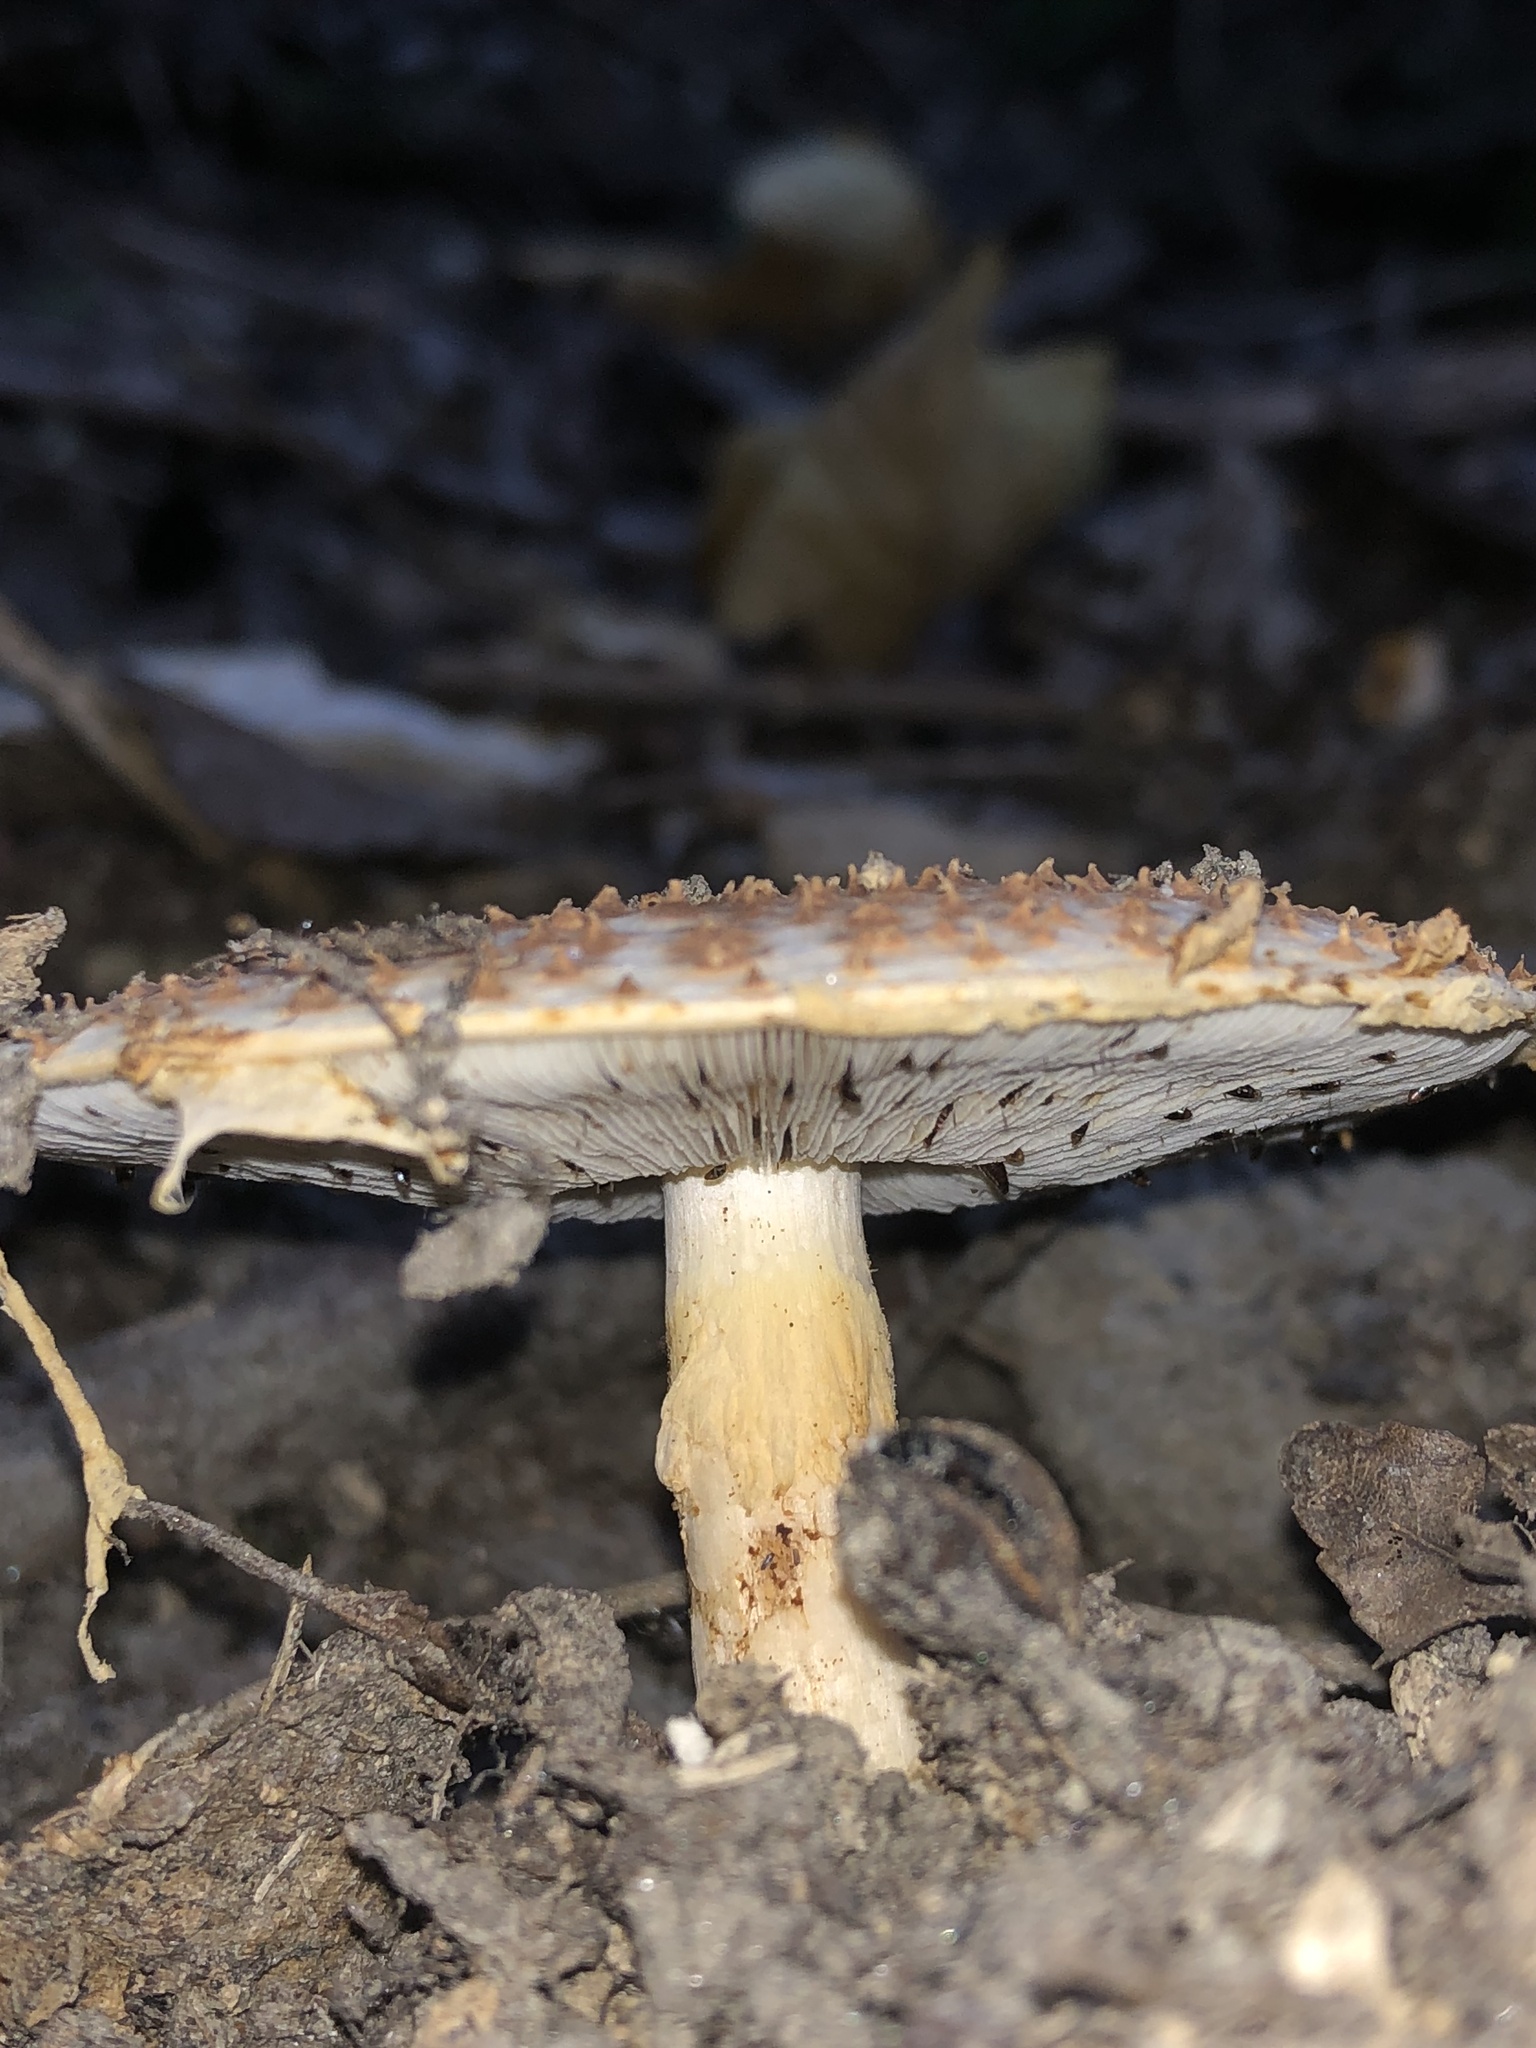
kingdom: Fungi
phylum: Basidiomycota
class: Agaricomycetes
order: Agaricales
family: Agaricaceae
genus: Echinoderma
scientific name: Echinoderma asperum
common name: Freckled dapperling
